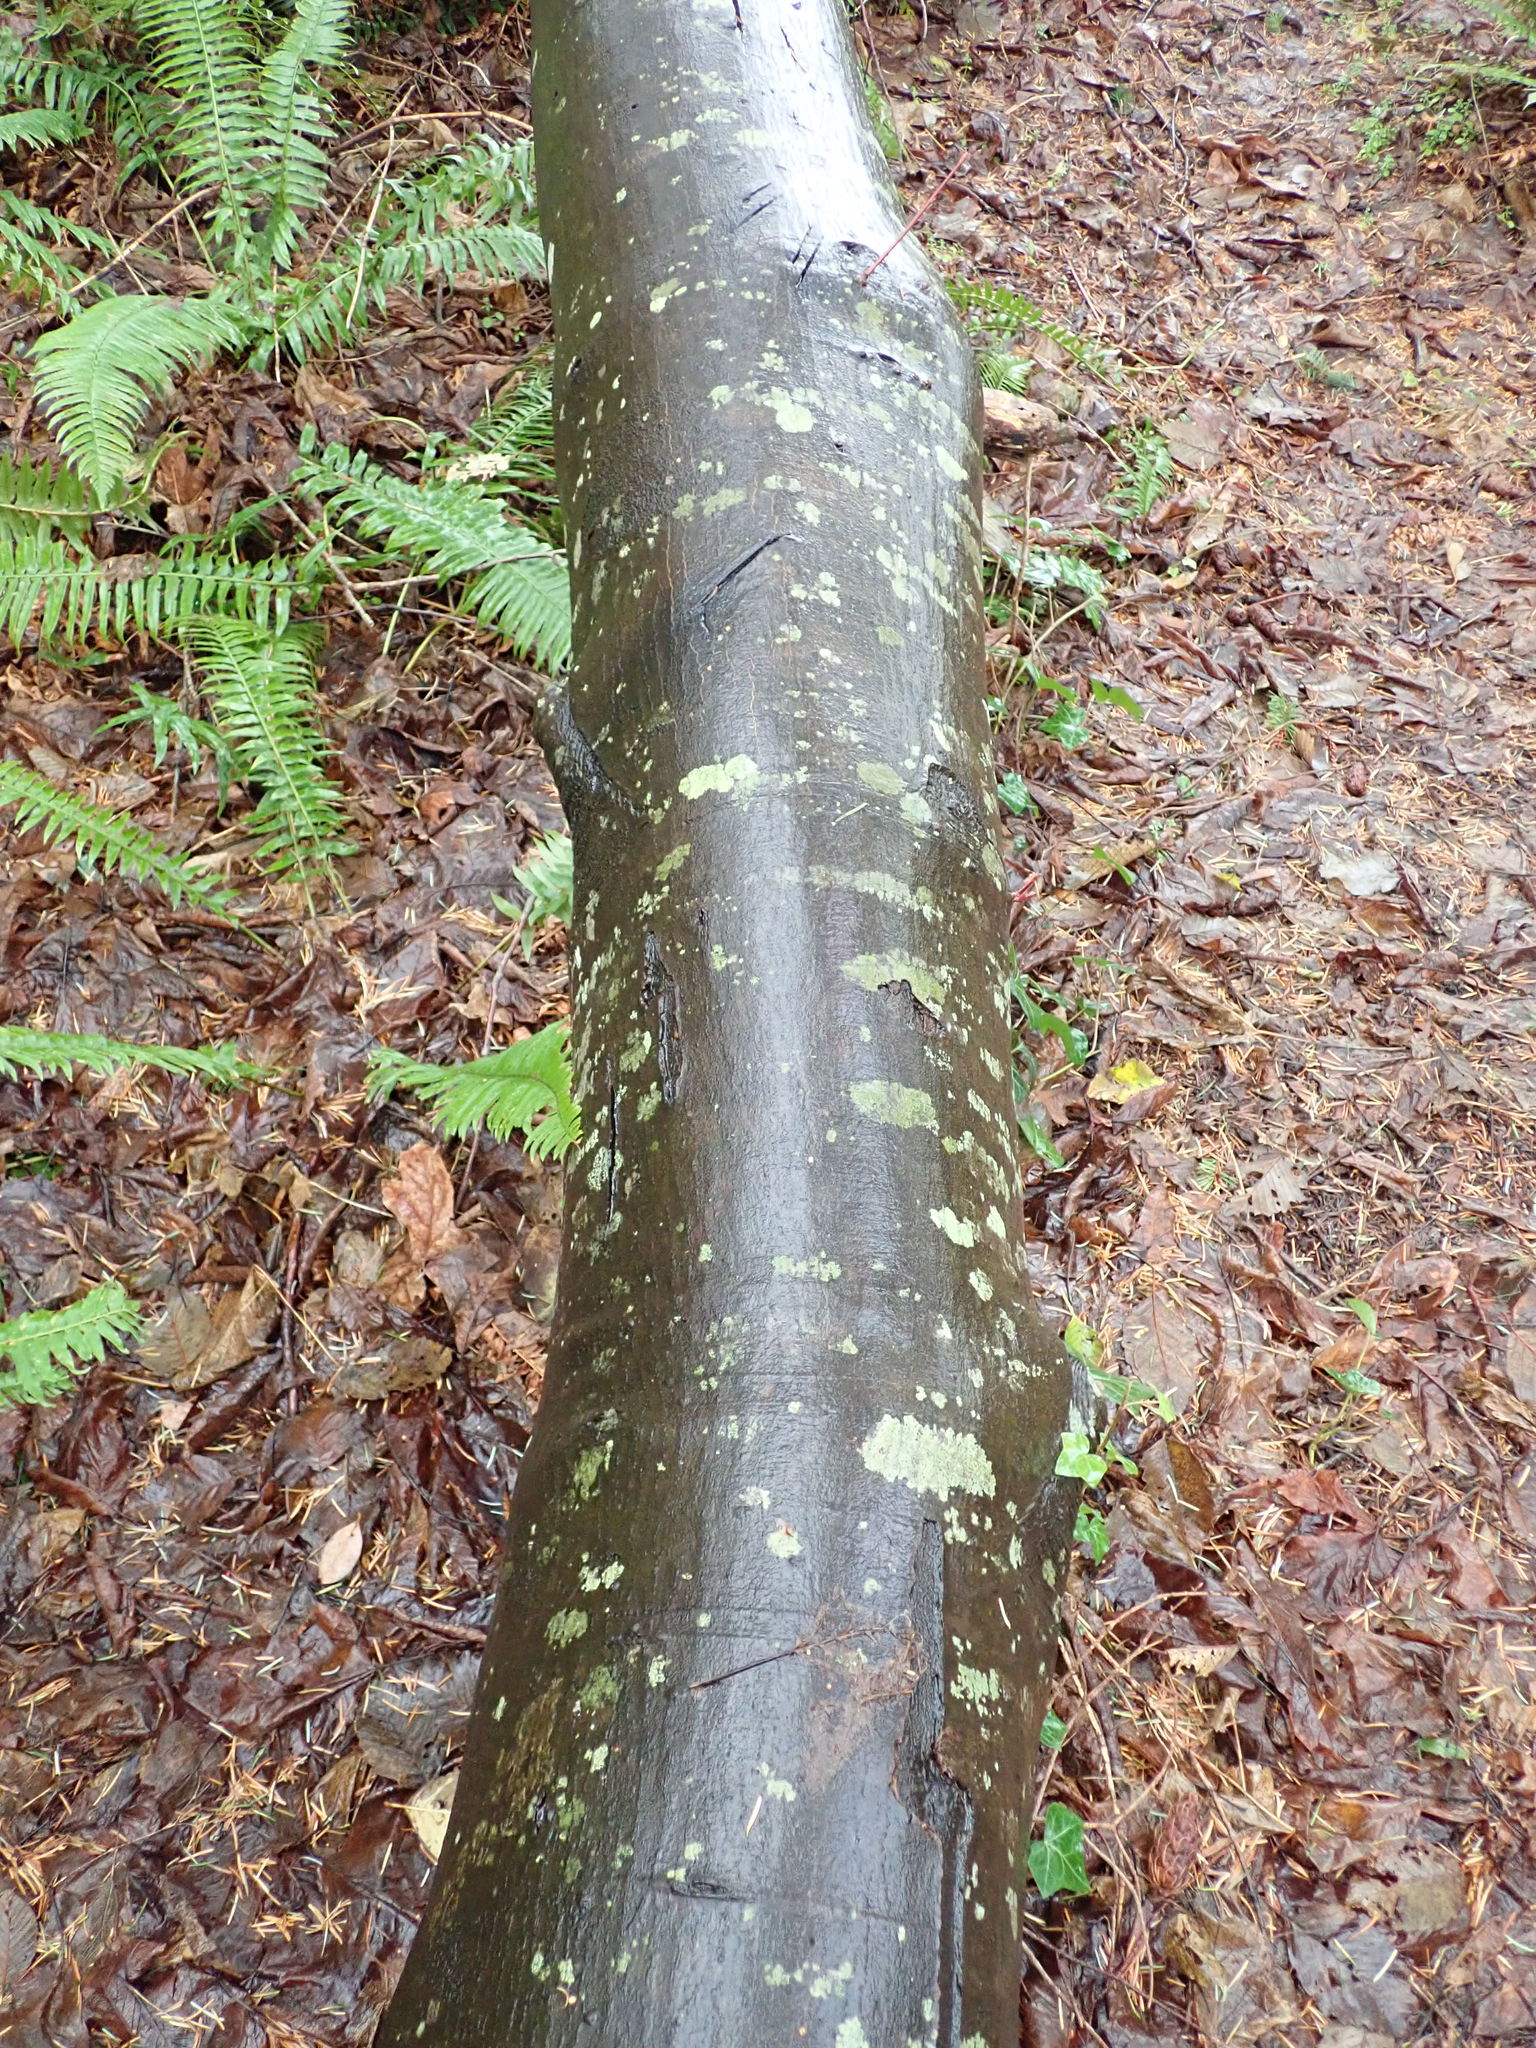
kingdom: Plantae
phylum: Tracheophyta
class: Magnoliopsida
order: Fagales
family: Betulaceae
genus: Alnus
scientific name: Alnus rubra
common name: Red alder
